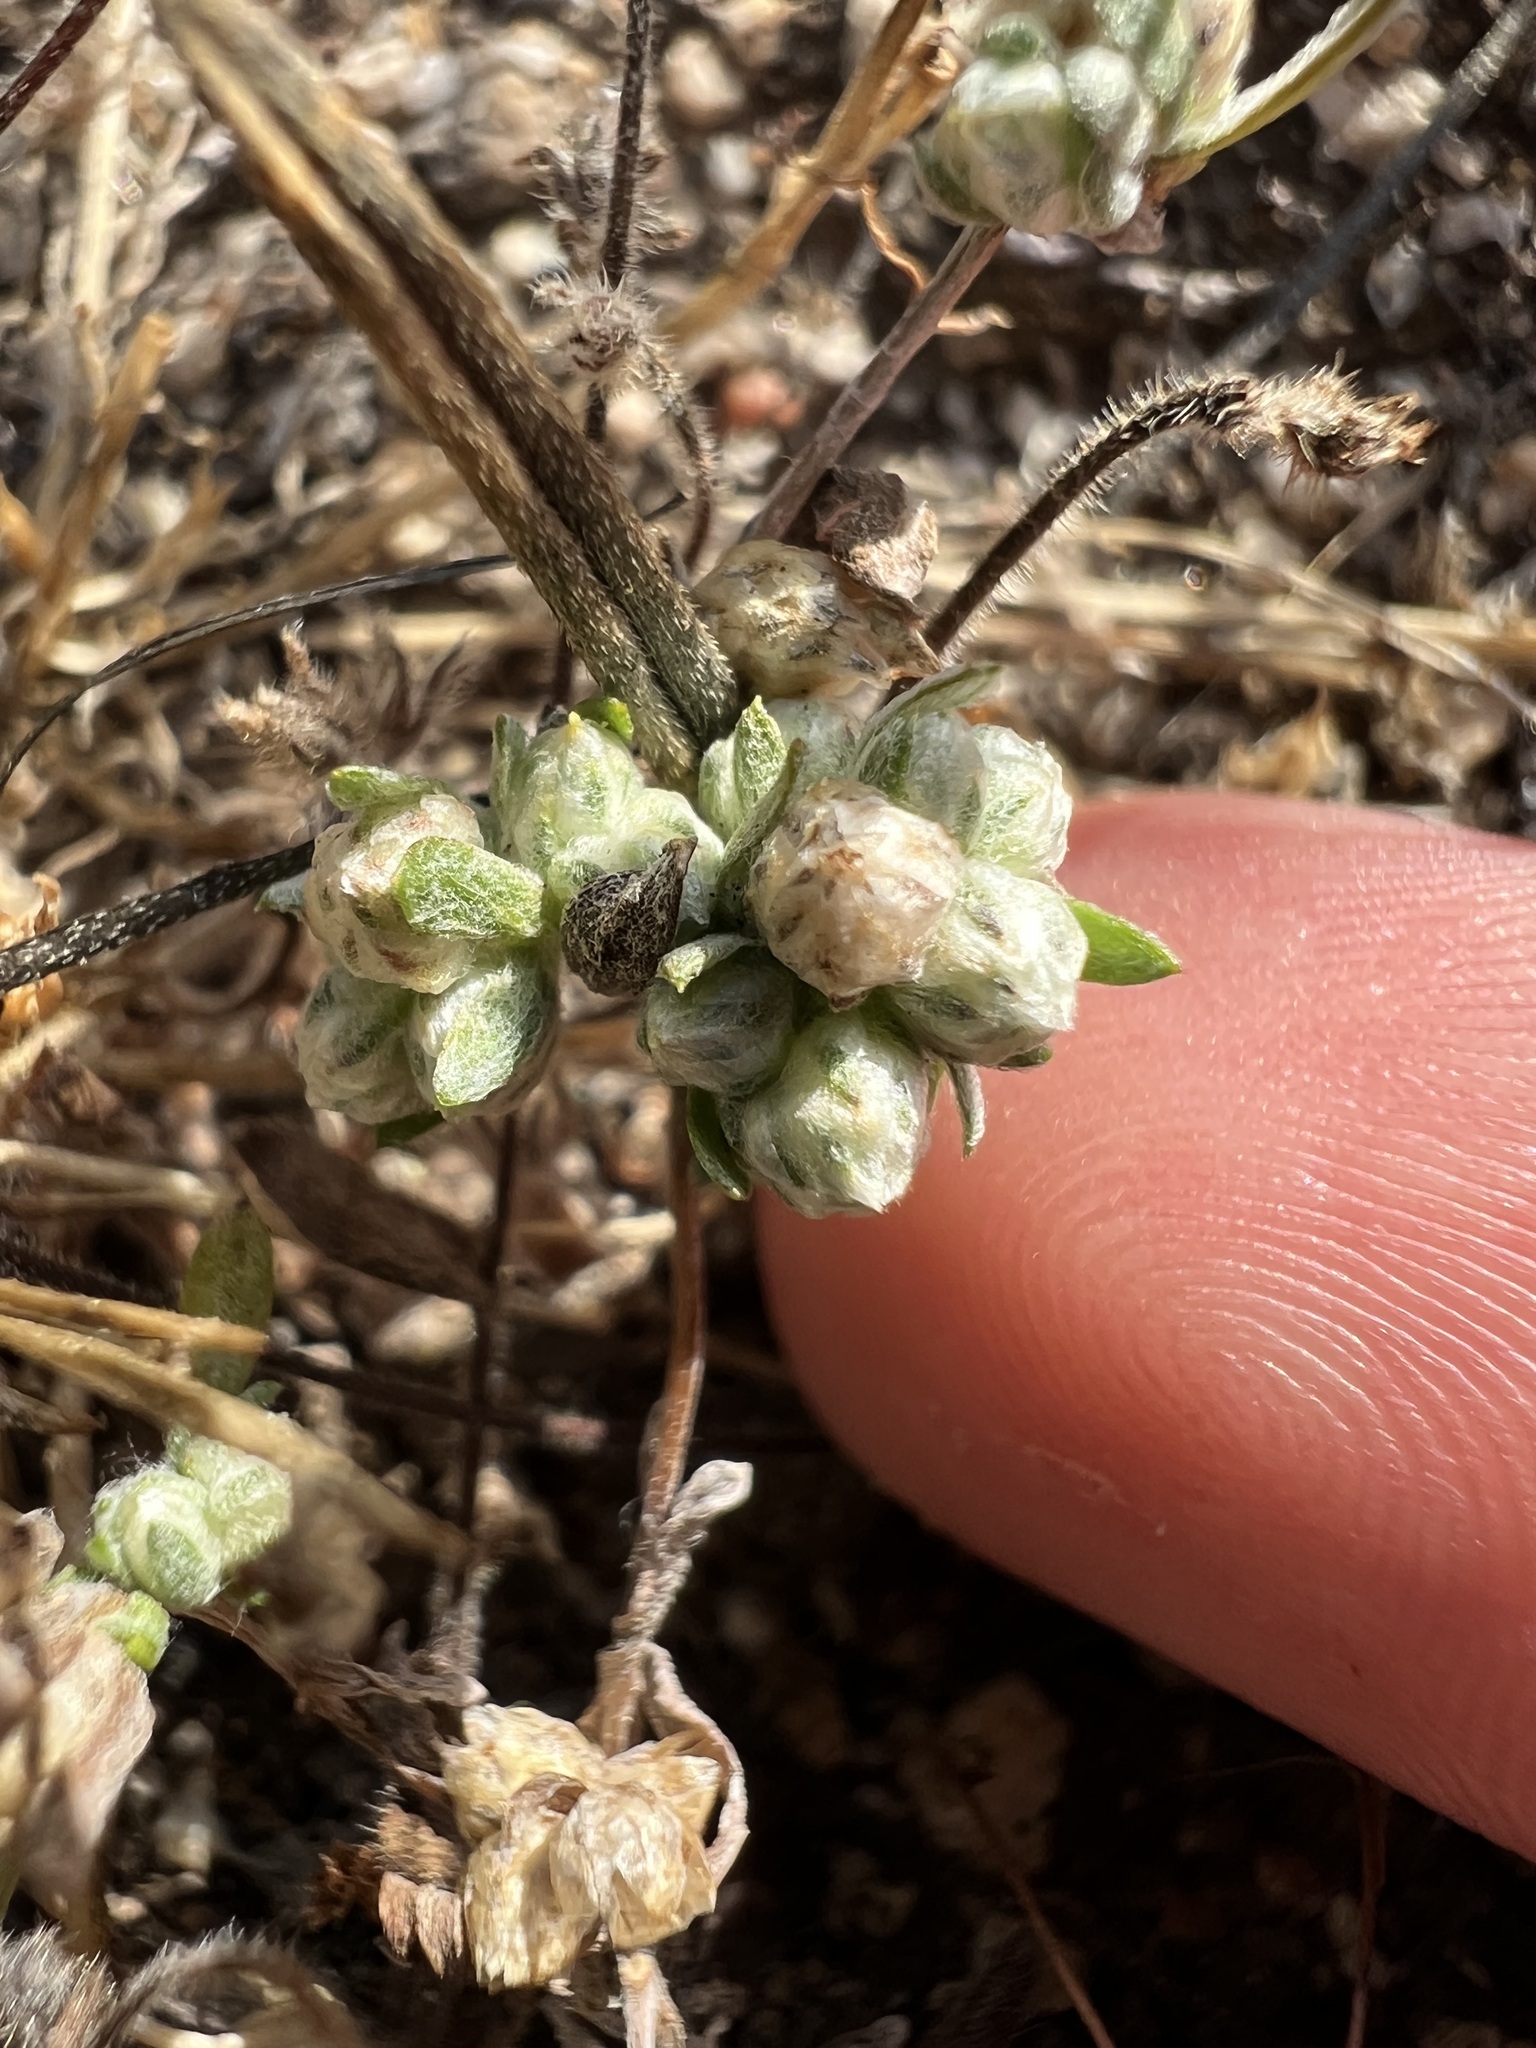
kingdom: Plantae
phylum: Tracheophyta
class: Magnoliopsida
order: Asterales
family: Asteraceae
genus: Stylocline
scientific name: Stylocline gnaphaloides
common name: Everlasting nest-straw
